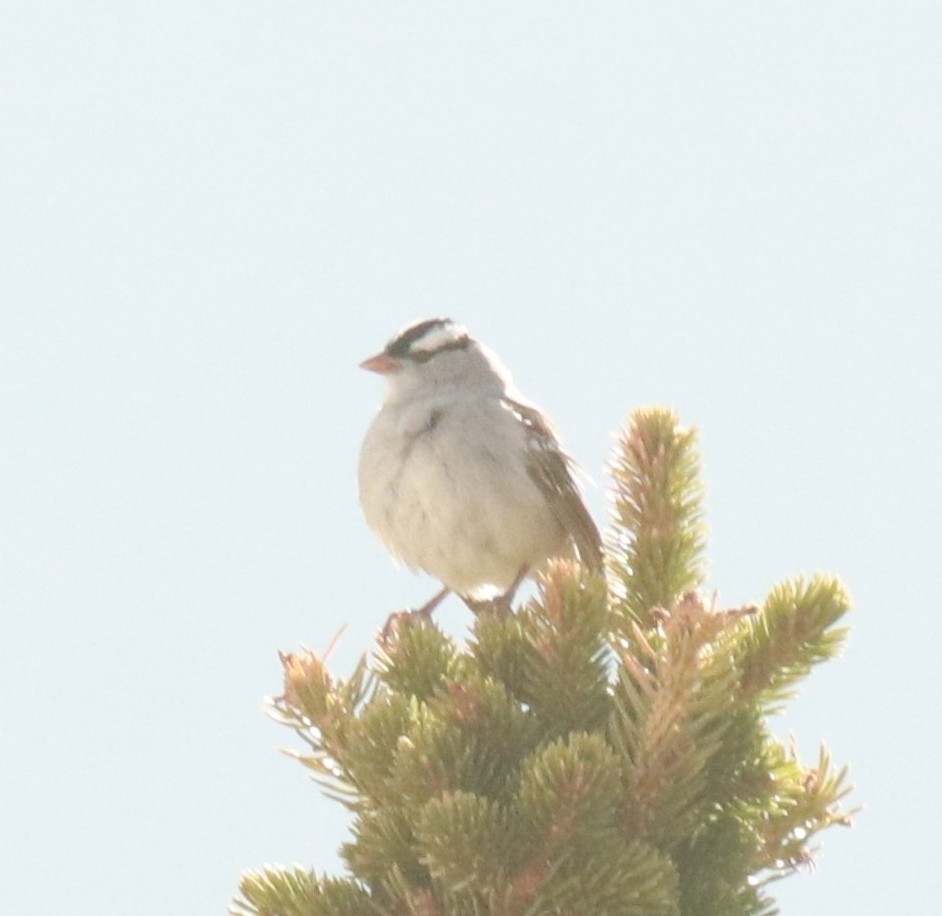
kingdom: Animalia
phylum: Chordata
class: Aves
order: Passeriformes
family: Passerellidae
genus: Zonotrichia
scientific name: Zonotrichia leucophrys
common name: White-crowned sparrow
